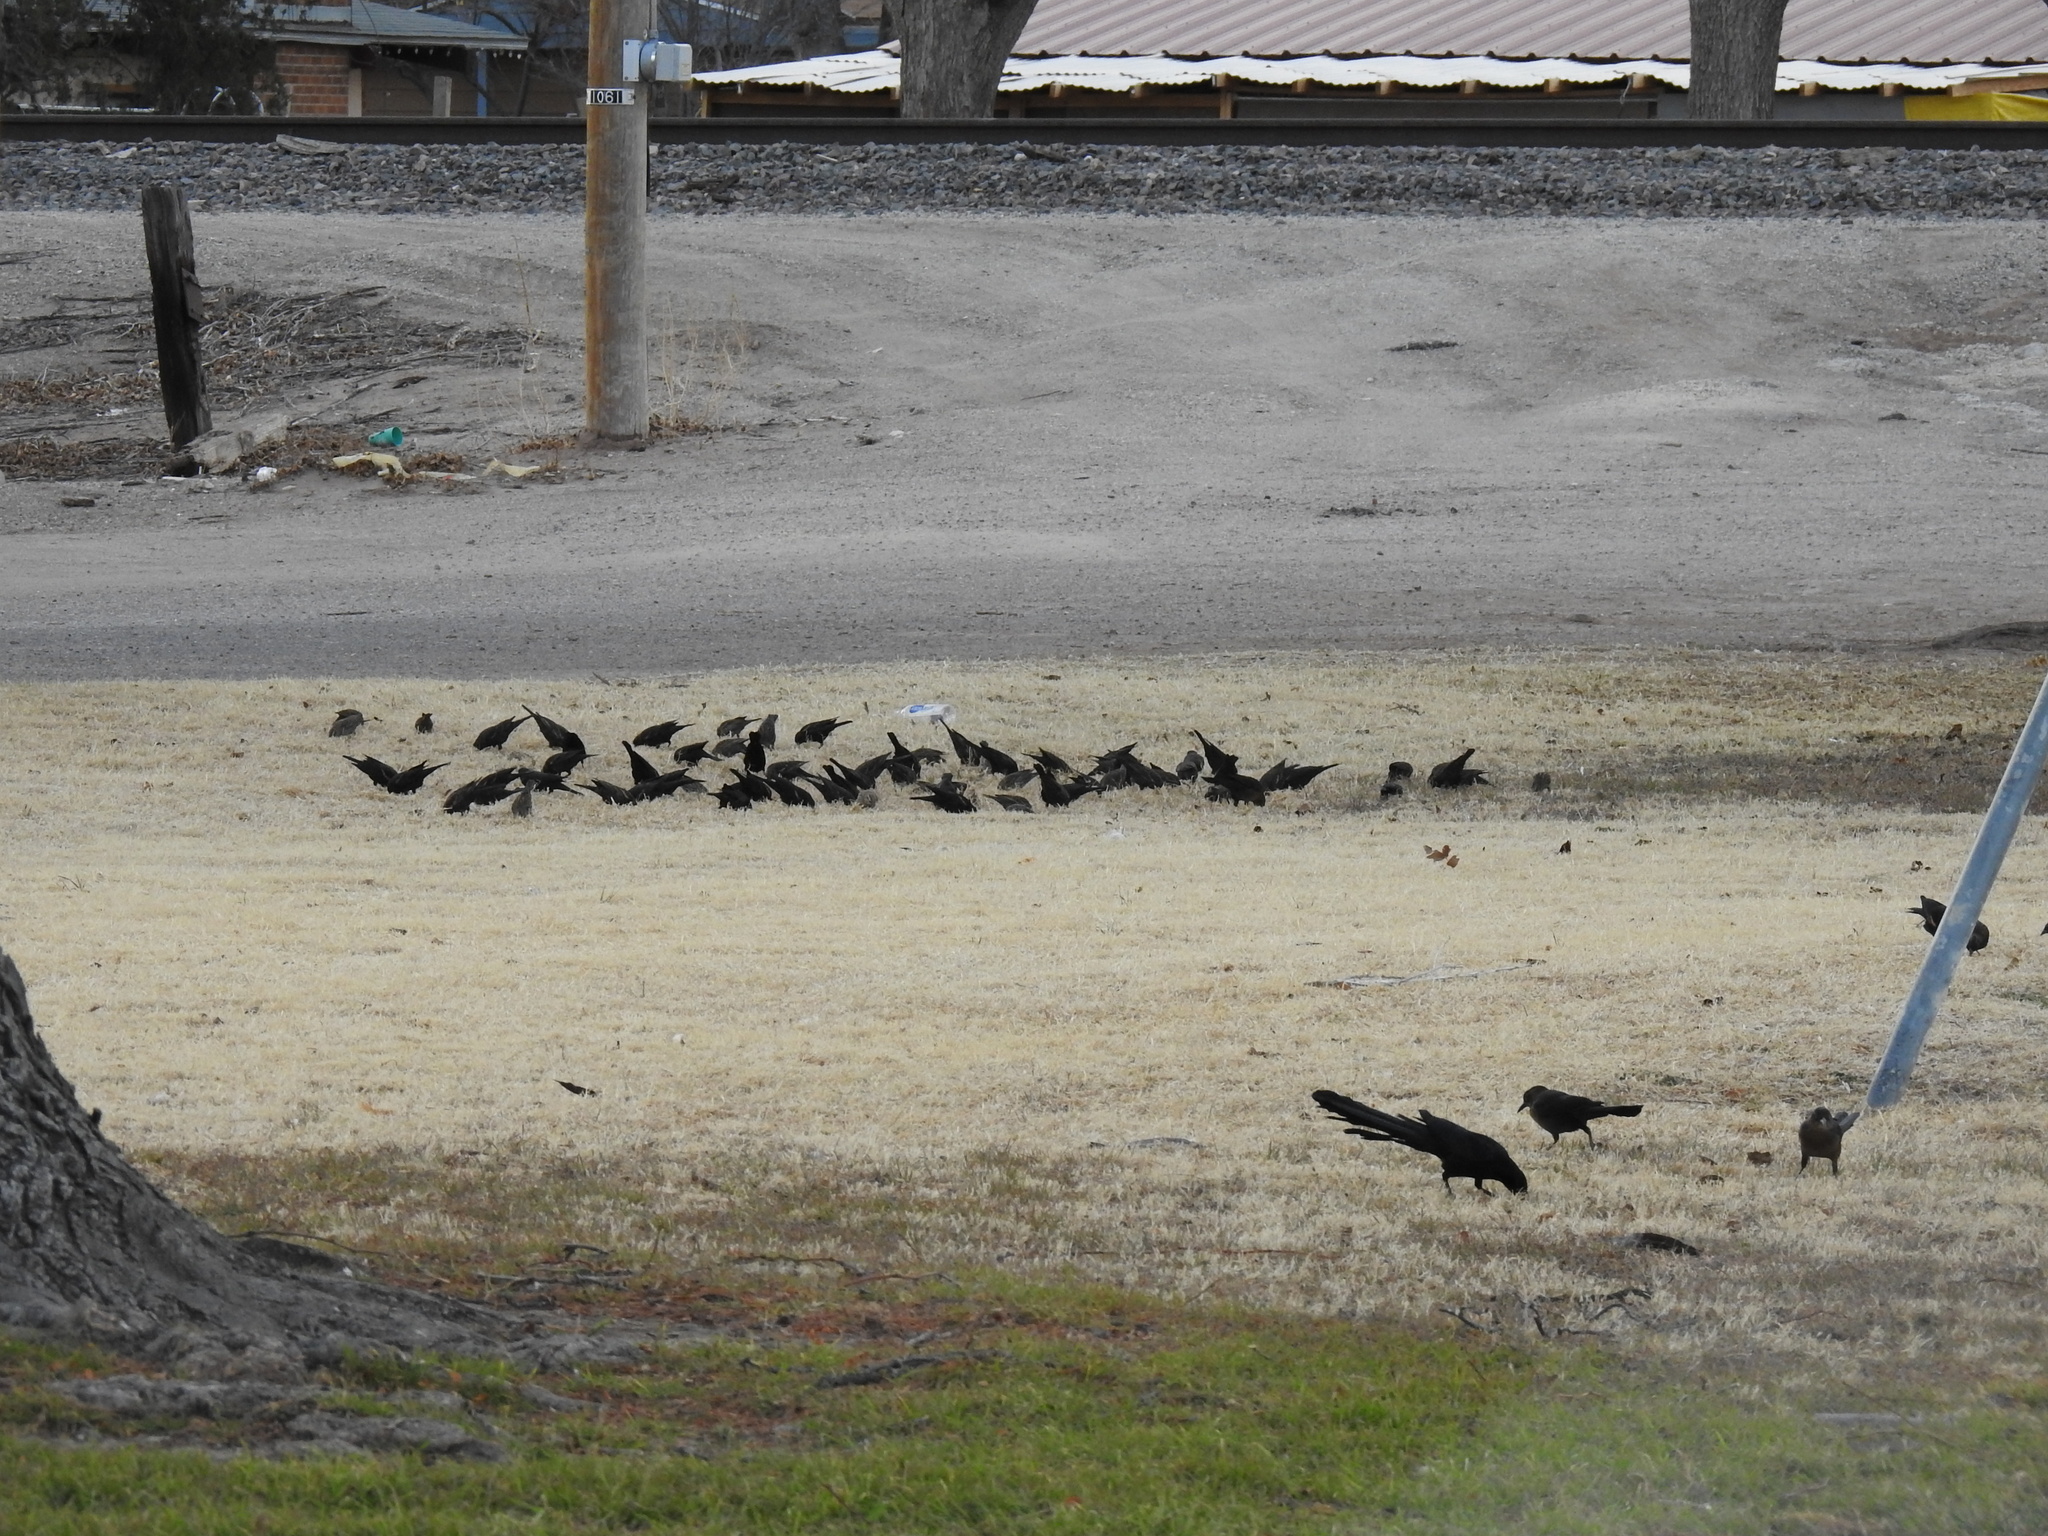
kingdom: Animalia
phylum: Chordata
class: Aves
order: Passeriformes
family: Icteridae
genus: Quiscalus
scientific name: Quiscalus mexicanus
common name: Great-tailed grackle
